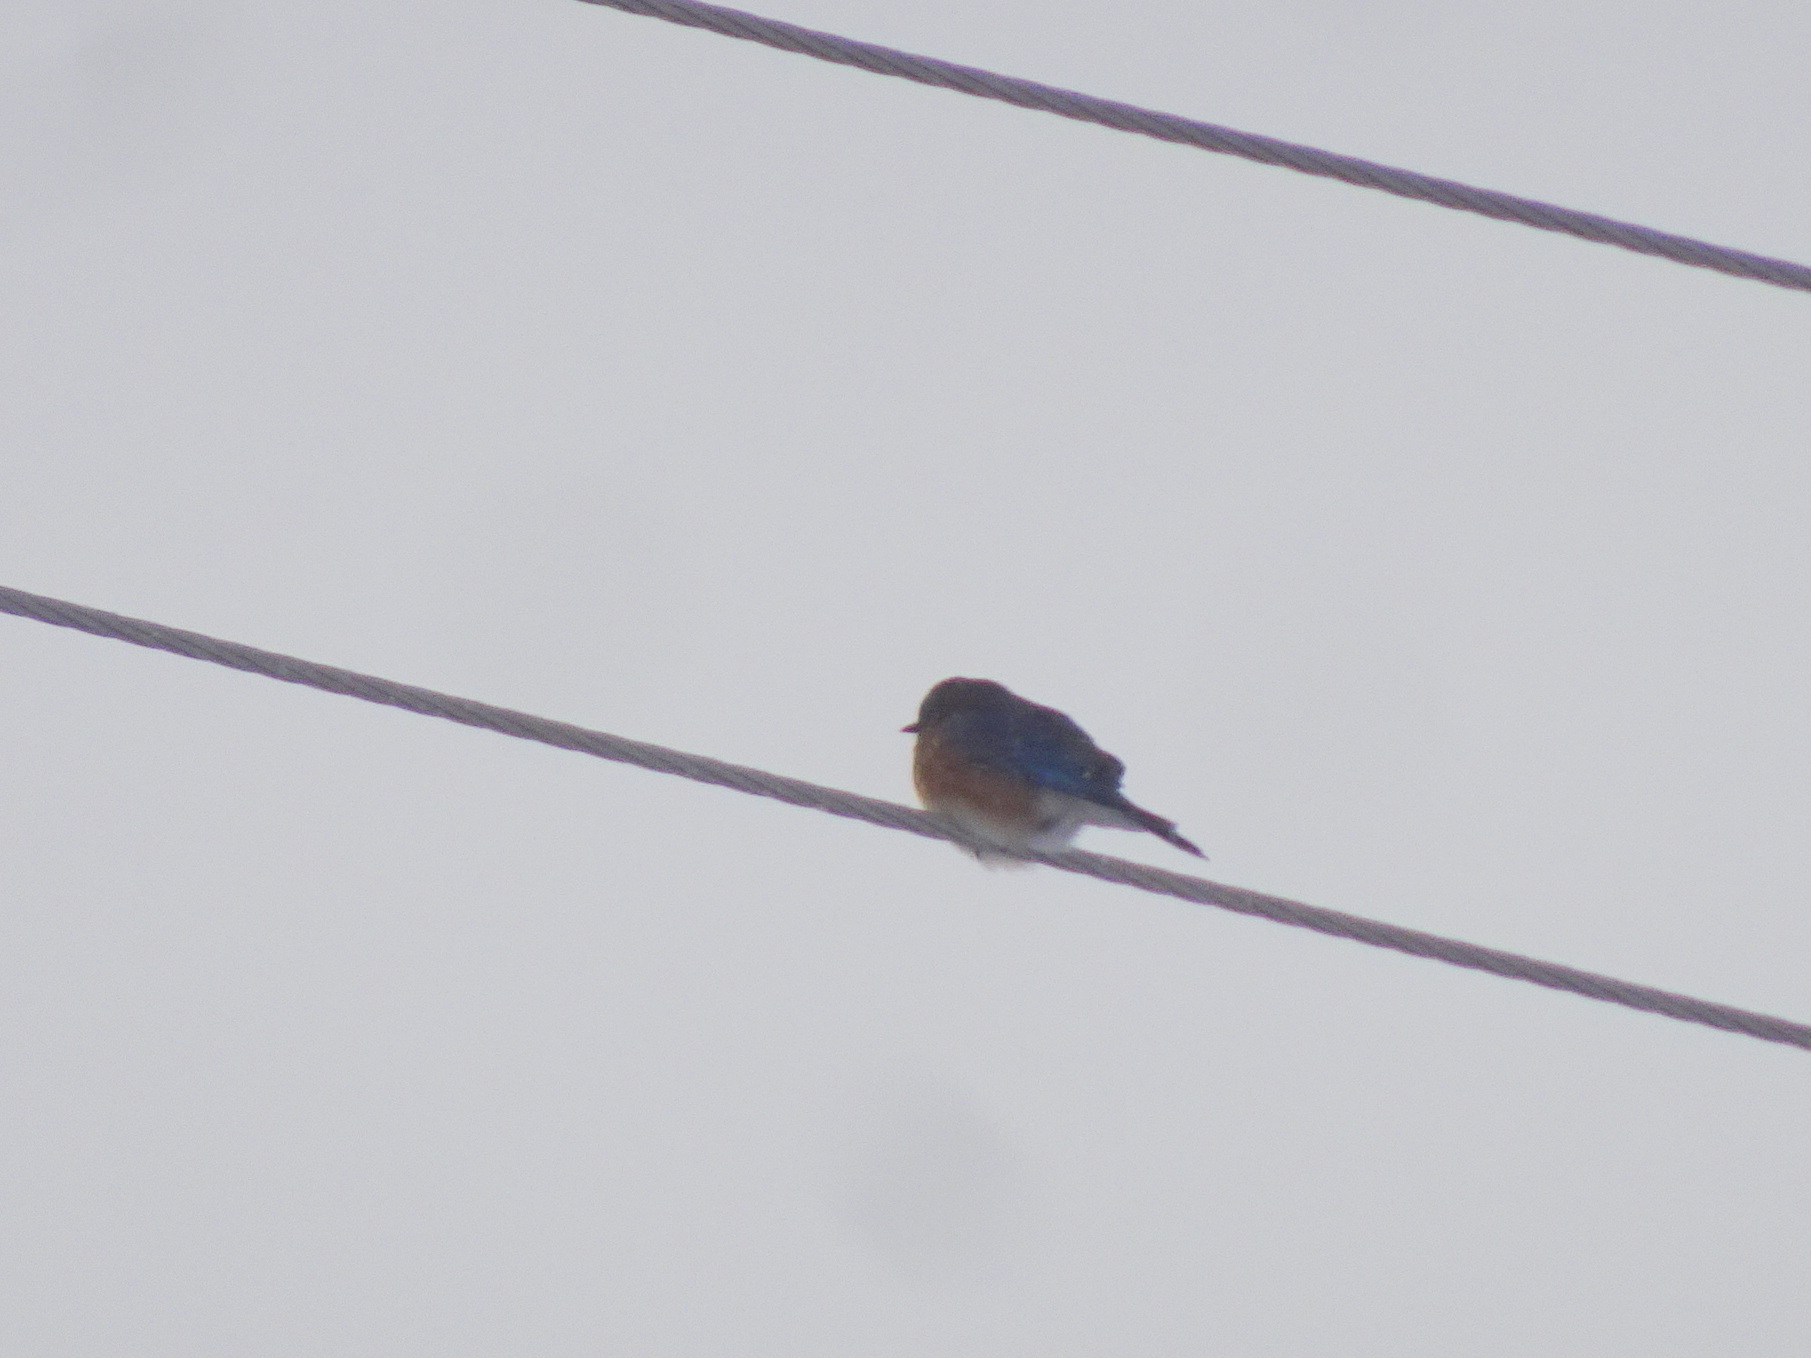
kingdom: Animalia
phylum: Chordata
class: Aves
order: Passeriformes
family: Turdidae
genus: Sialia
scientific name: Sialia sialis
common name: Eastern bluebird
